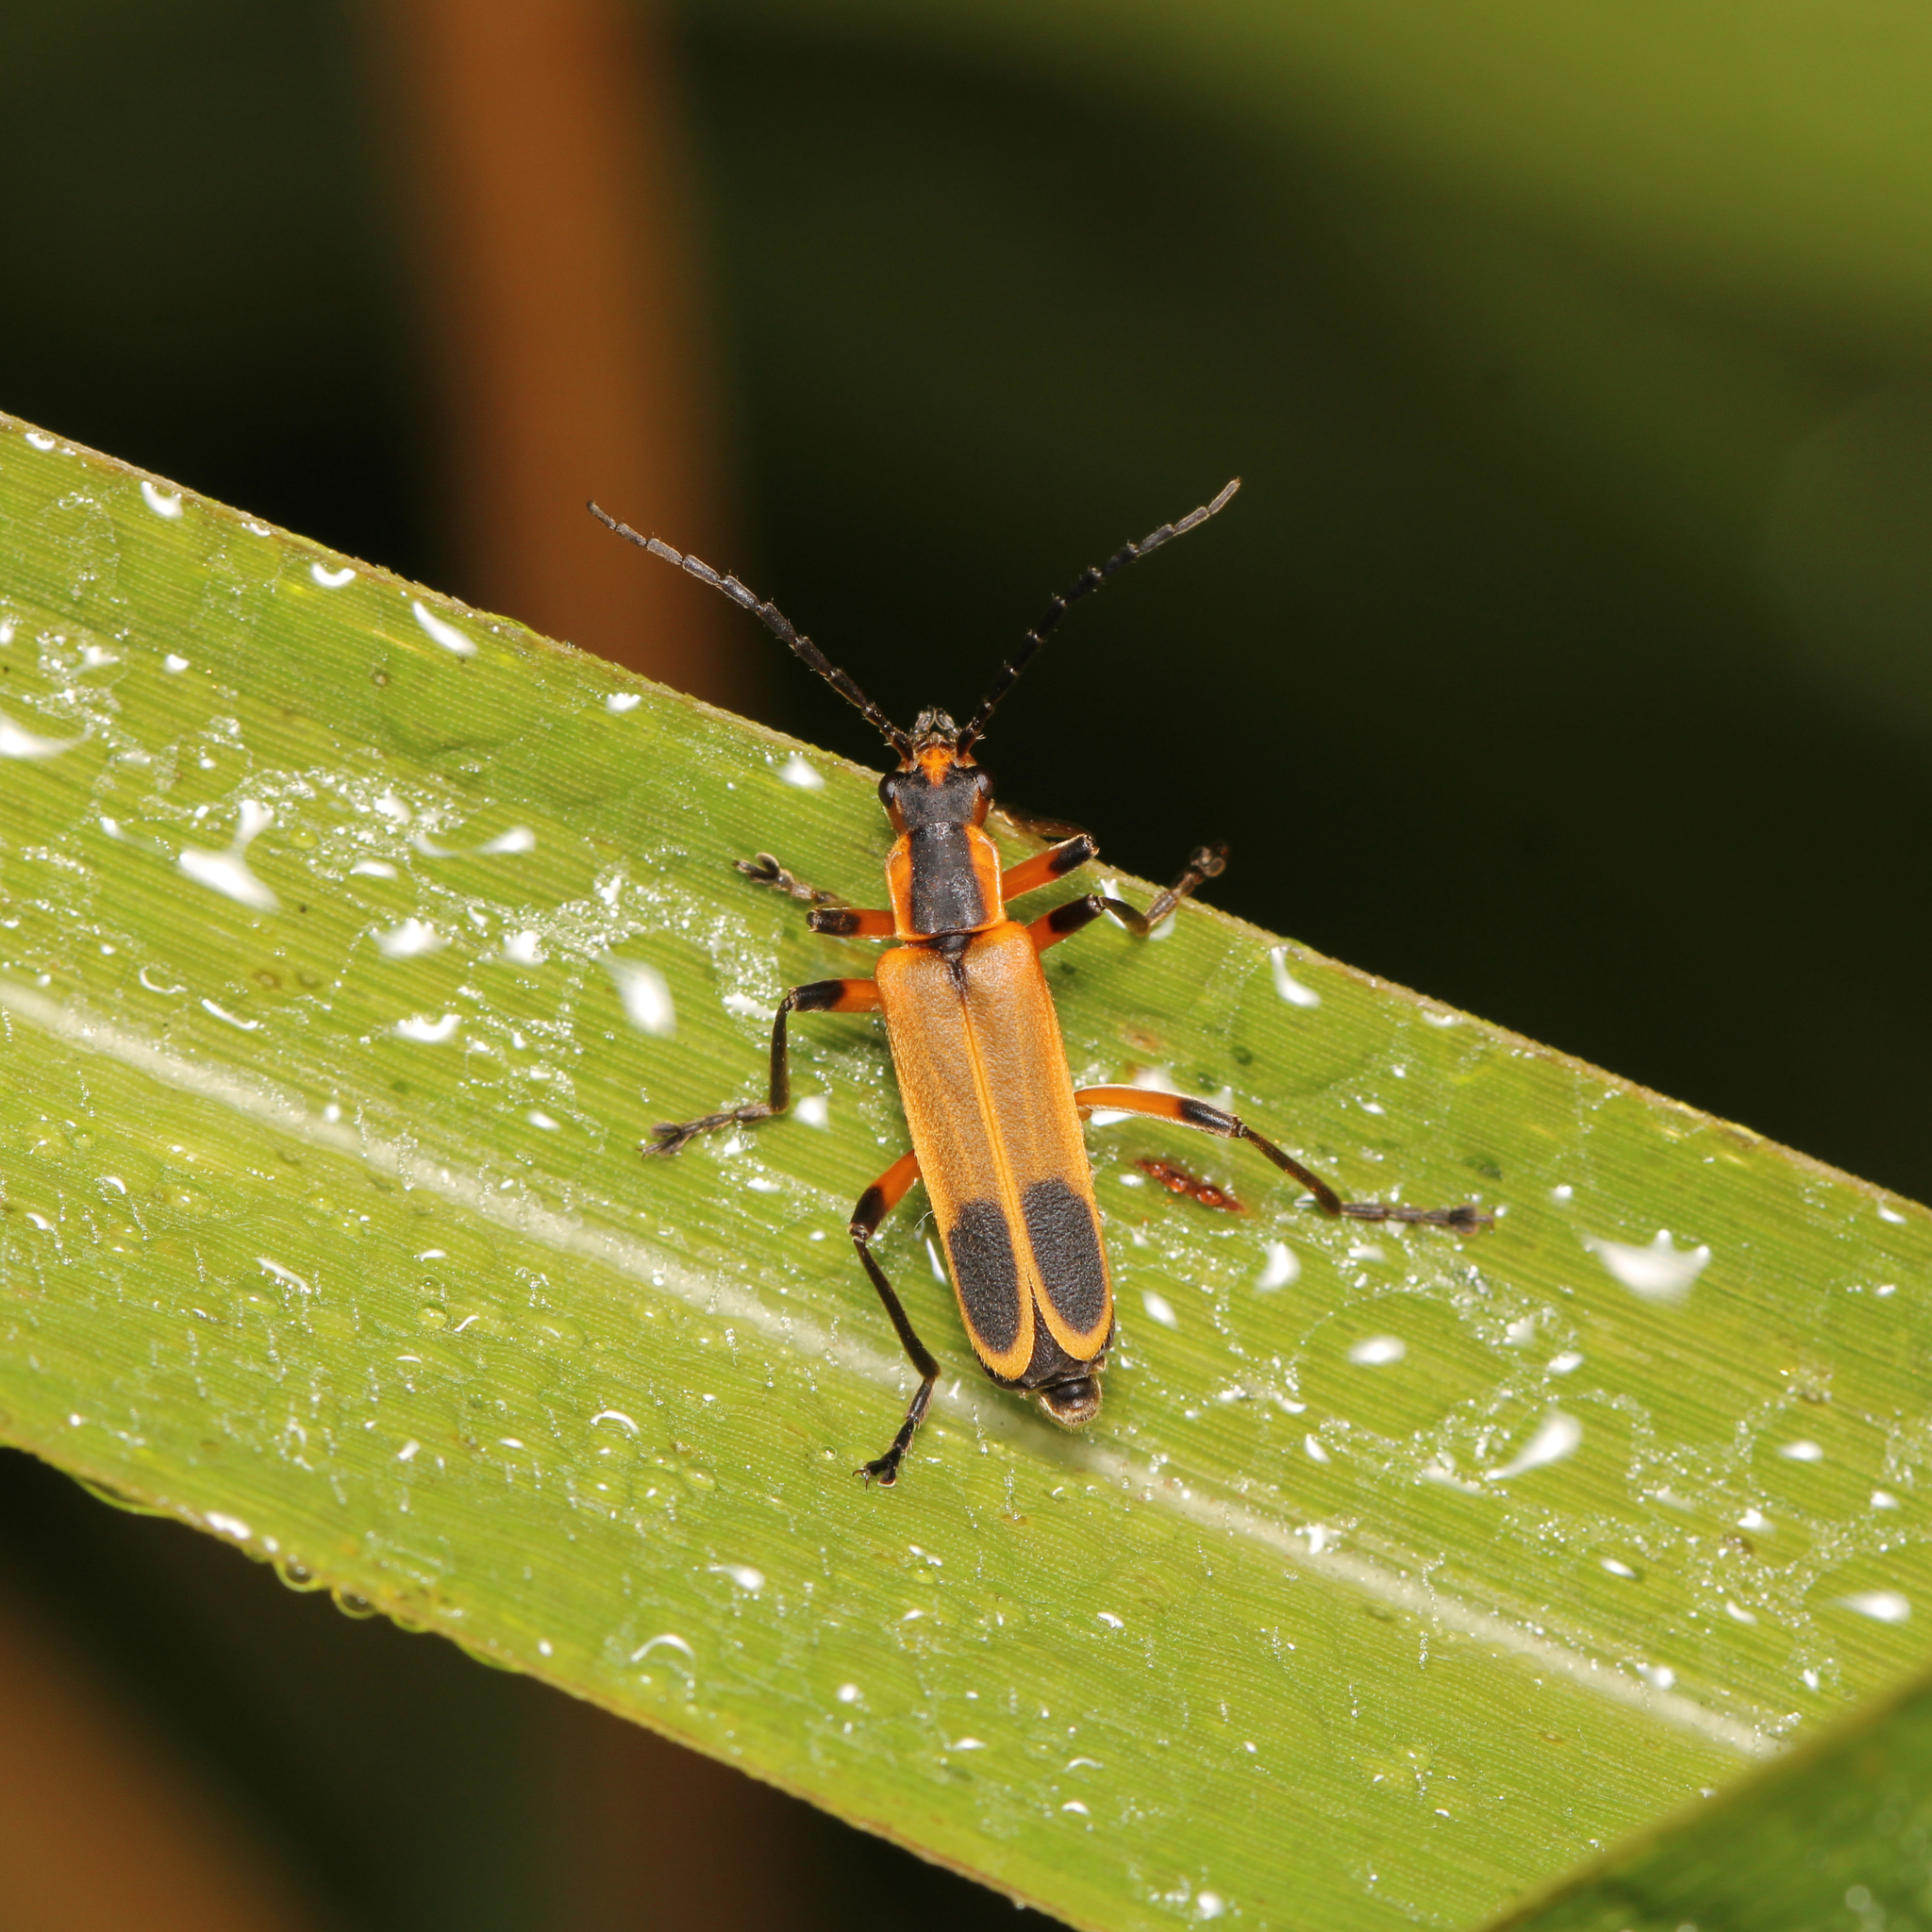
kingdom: Animalia
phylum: Arthropoda
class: Insecta
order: Coleoptera
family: Cantharidae
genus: Chauliognathus
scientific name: Chauliognathus marginatus
